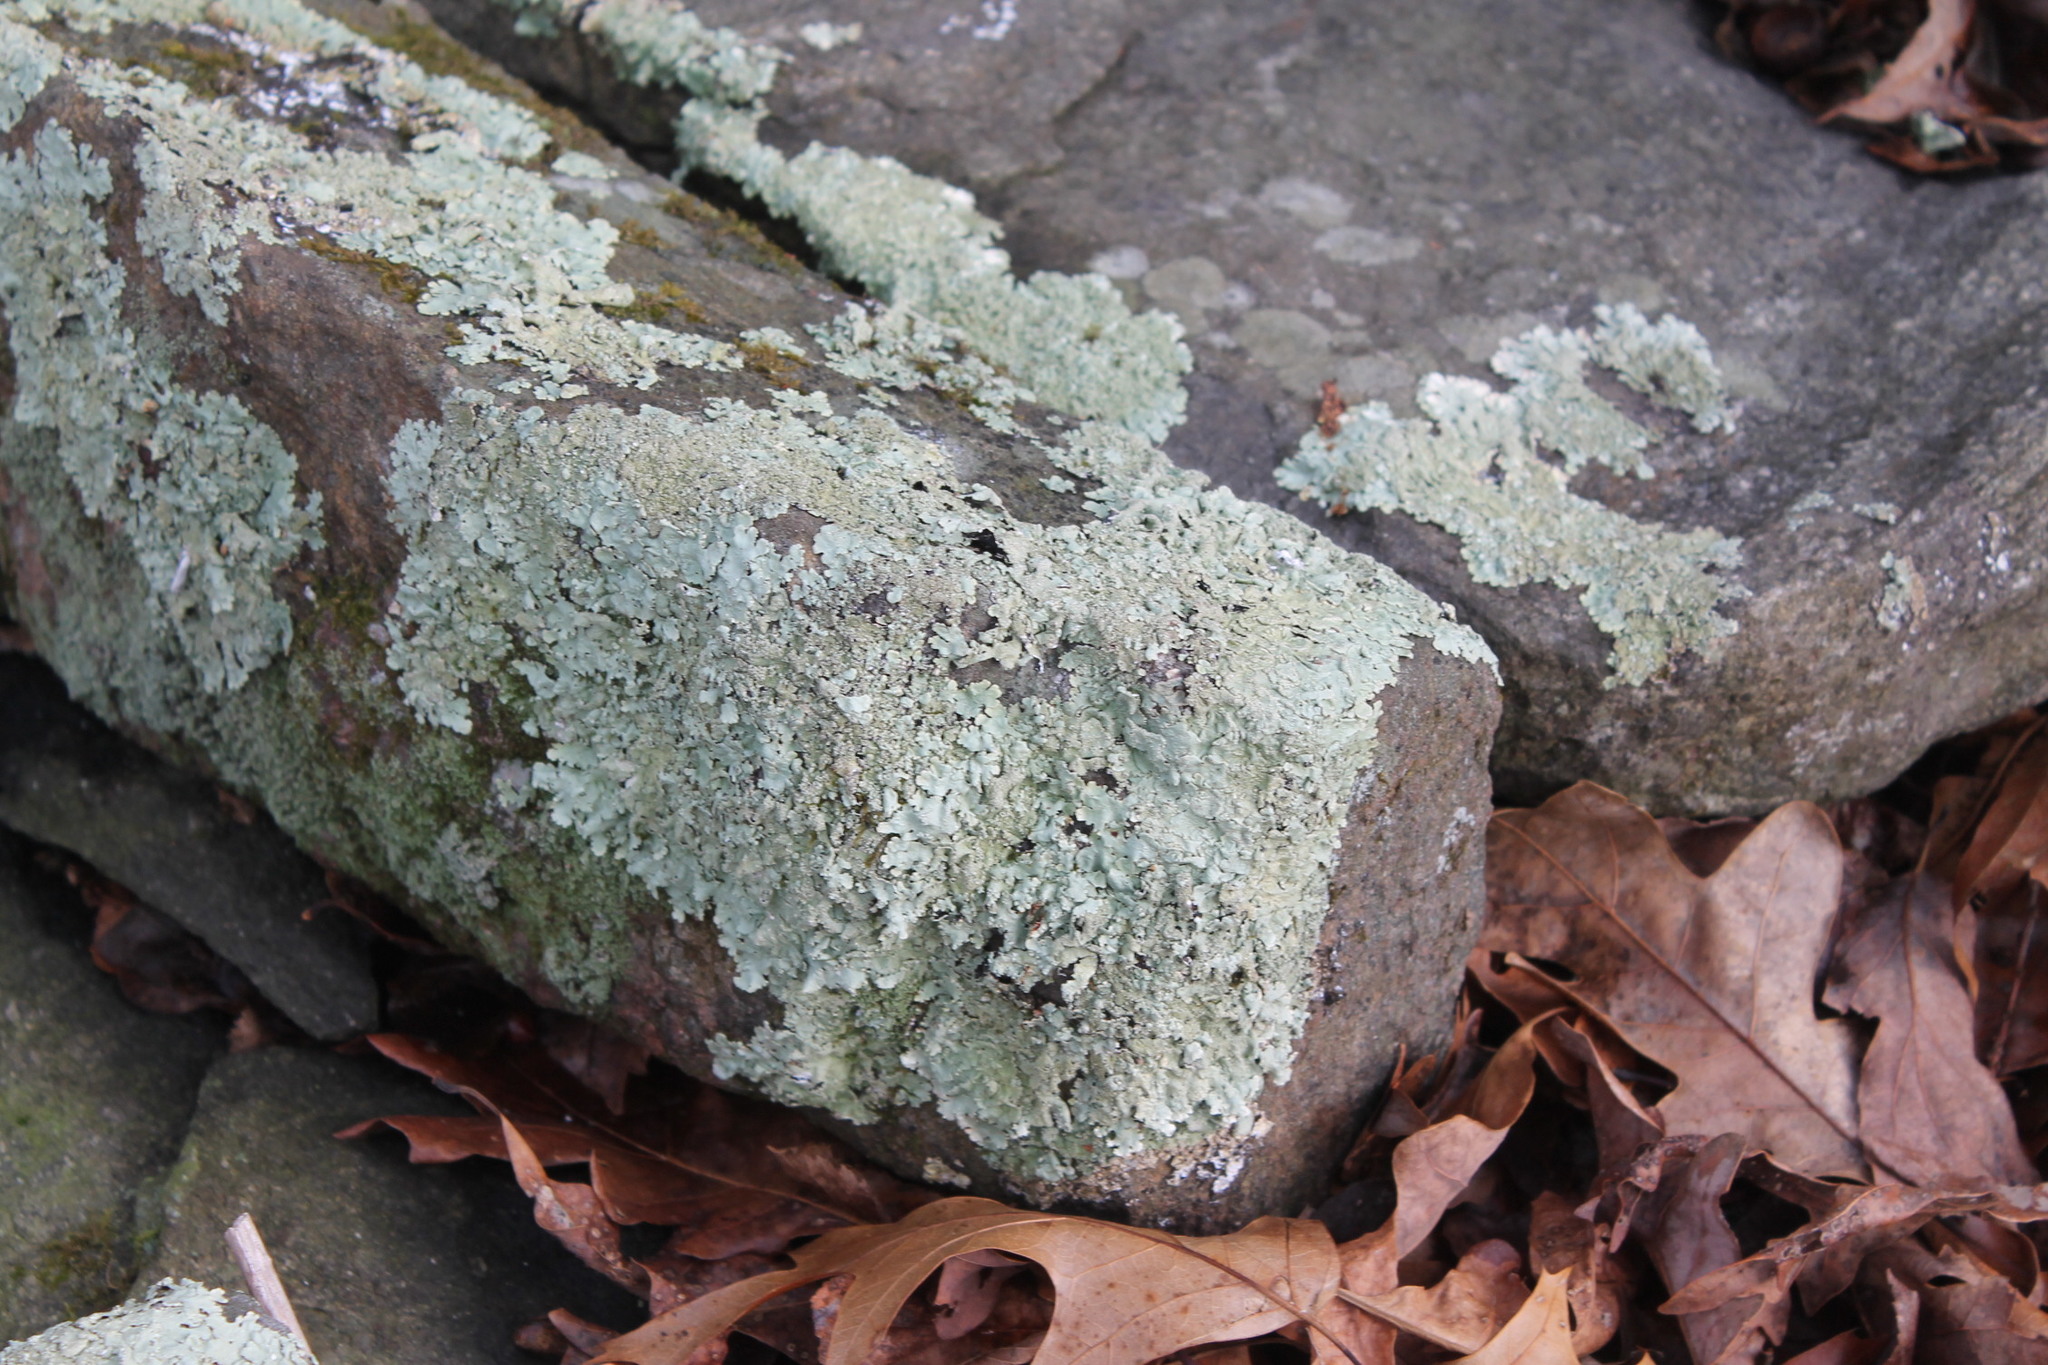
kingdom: Fungi
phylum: Ascomycota
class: Lecanoromycetes
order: Lecanorales
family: Parmeliaceae
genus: Flavoparmelia
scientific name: Flavoparmelia baltimorensis
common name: Rock greenshield
